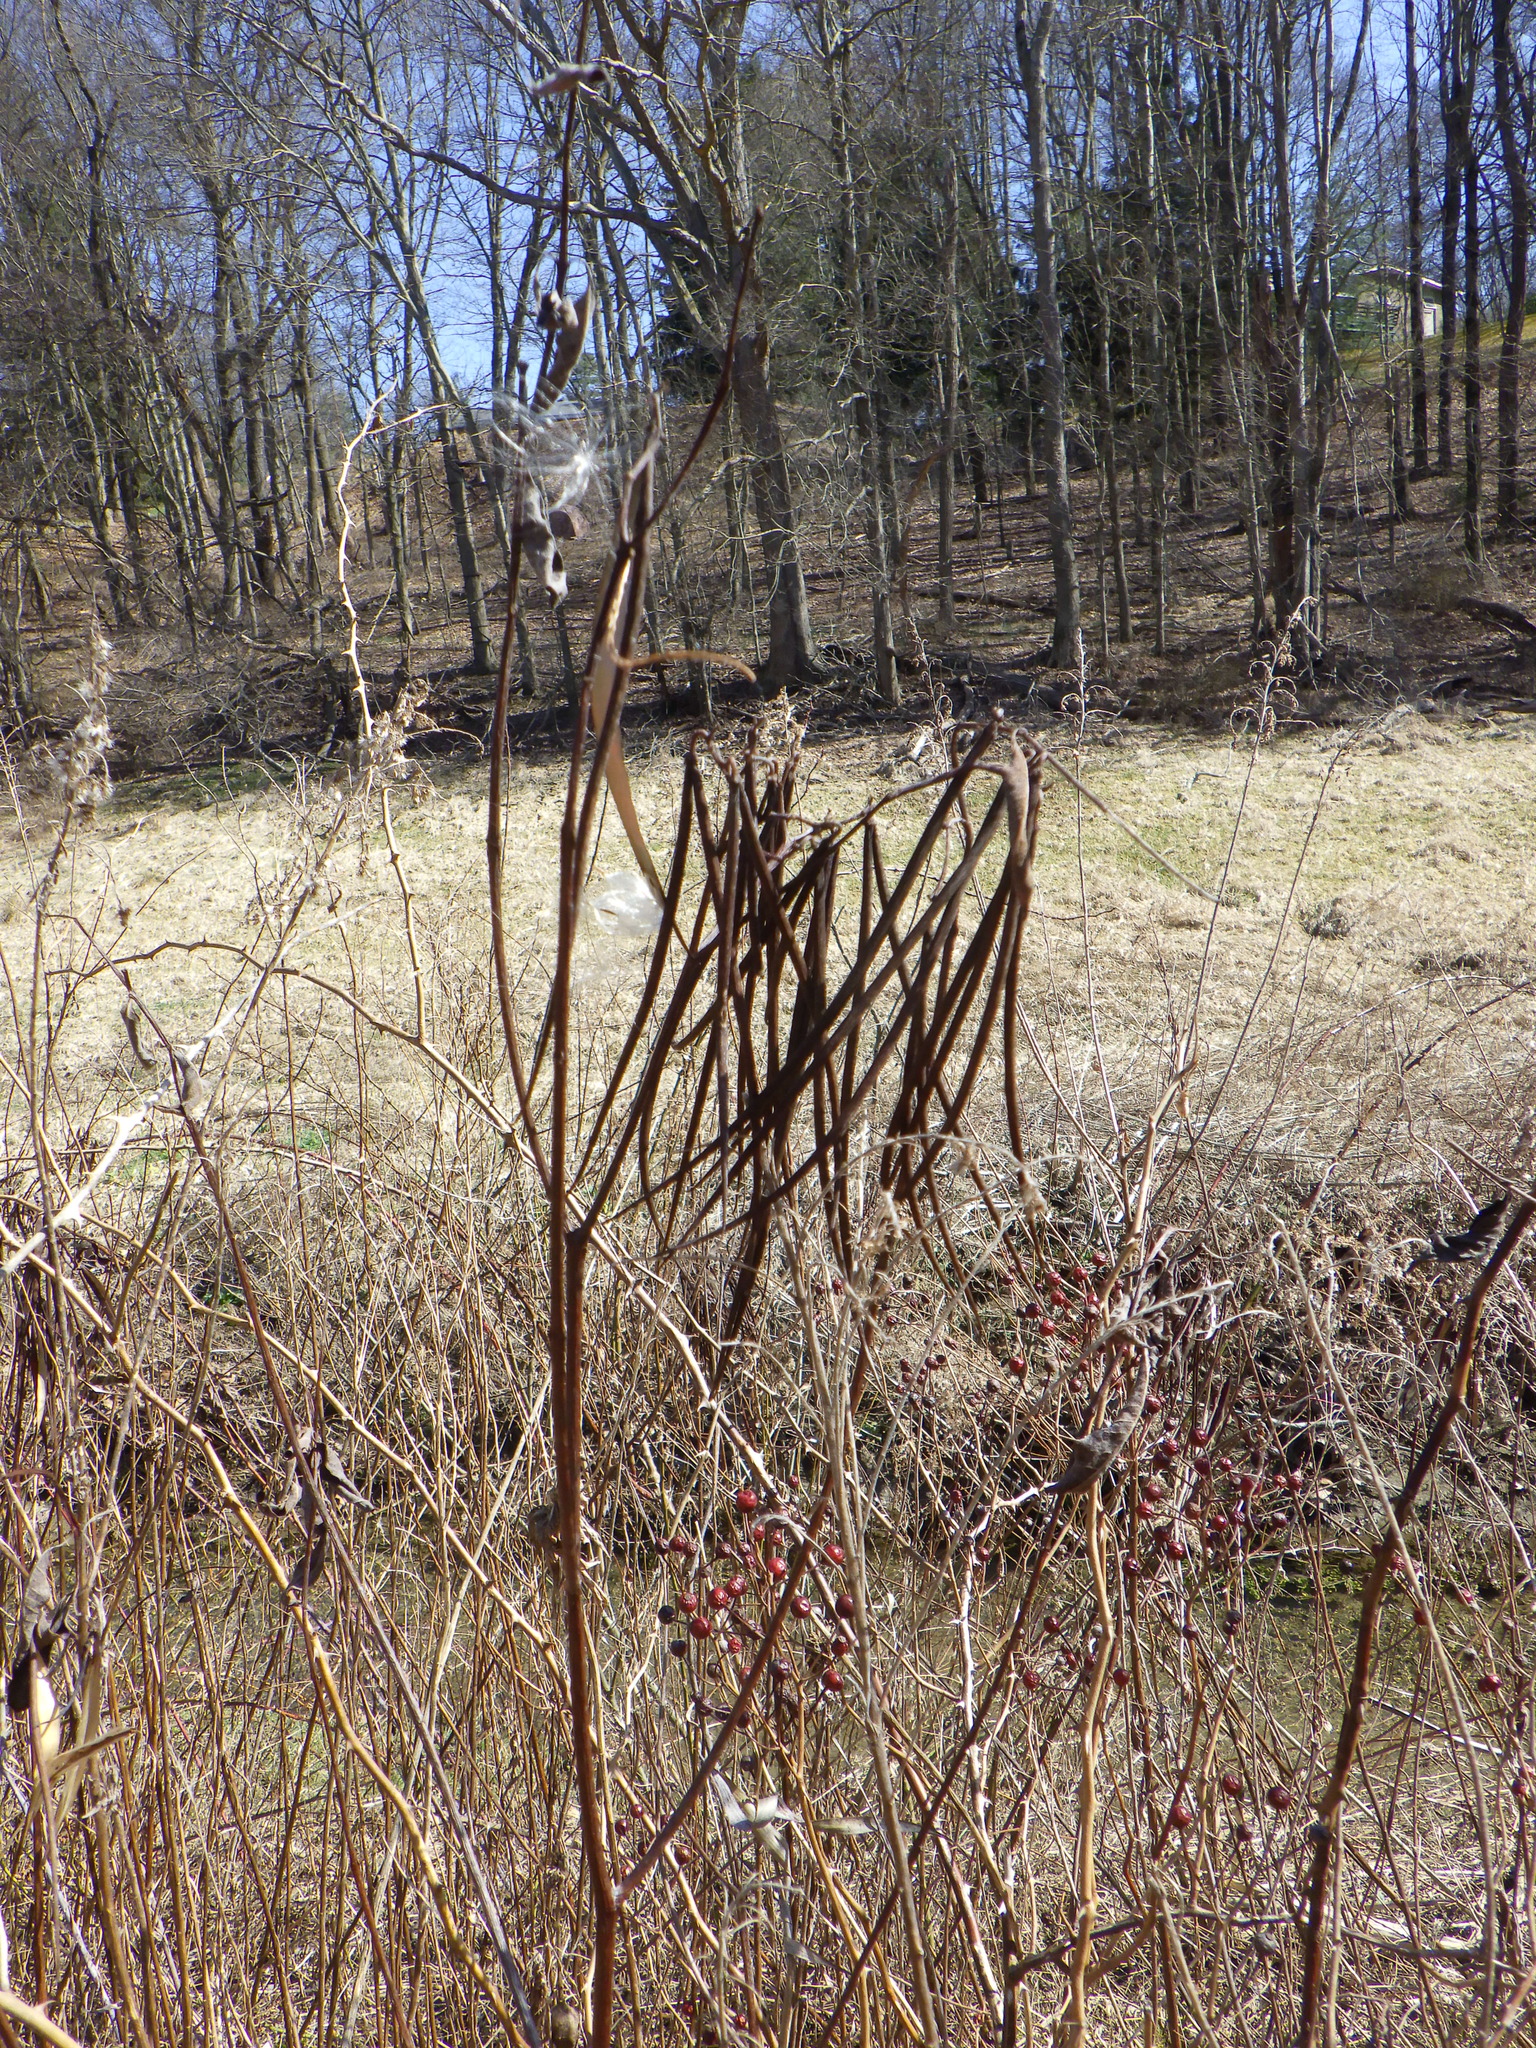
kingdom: Plantae
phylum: Tracheophyta
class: Magnoliopsida
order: Gentianales
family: Apocynaceae
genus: Apocynum
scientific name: Apocynum cannabinum
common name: Hemp dogbane
